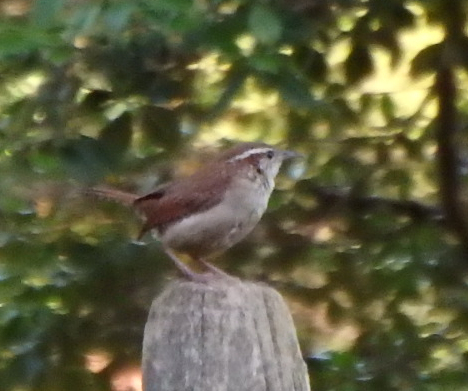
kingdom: Animalia
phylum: Chordata
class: Aves
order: Passeriformes
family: Troglodytidae
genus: Thryothorus
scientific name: Thryothorus ludovicianus
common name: Carolina wren
